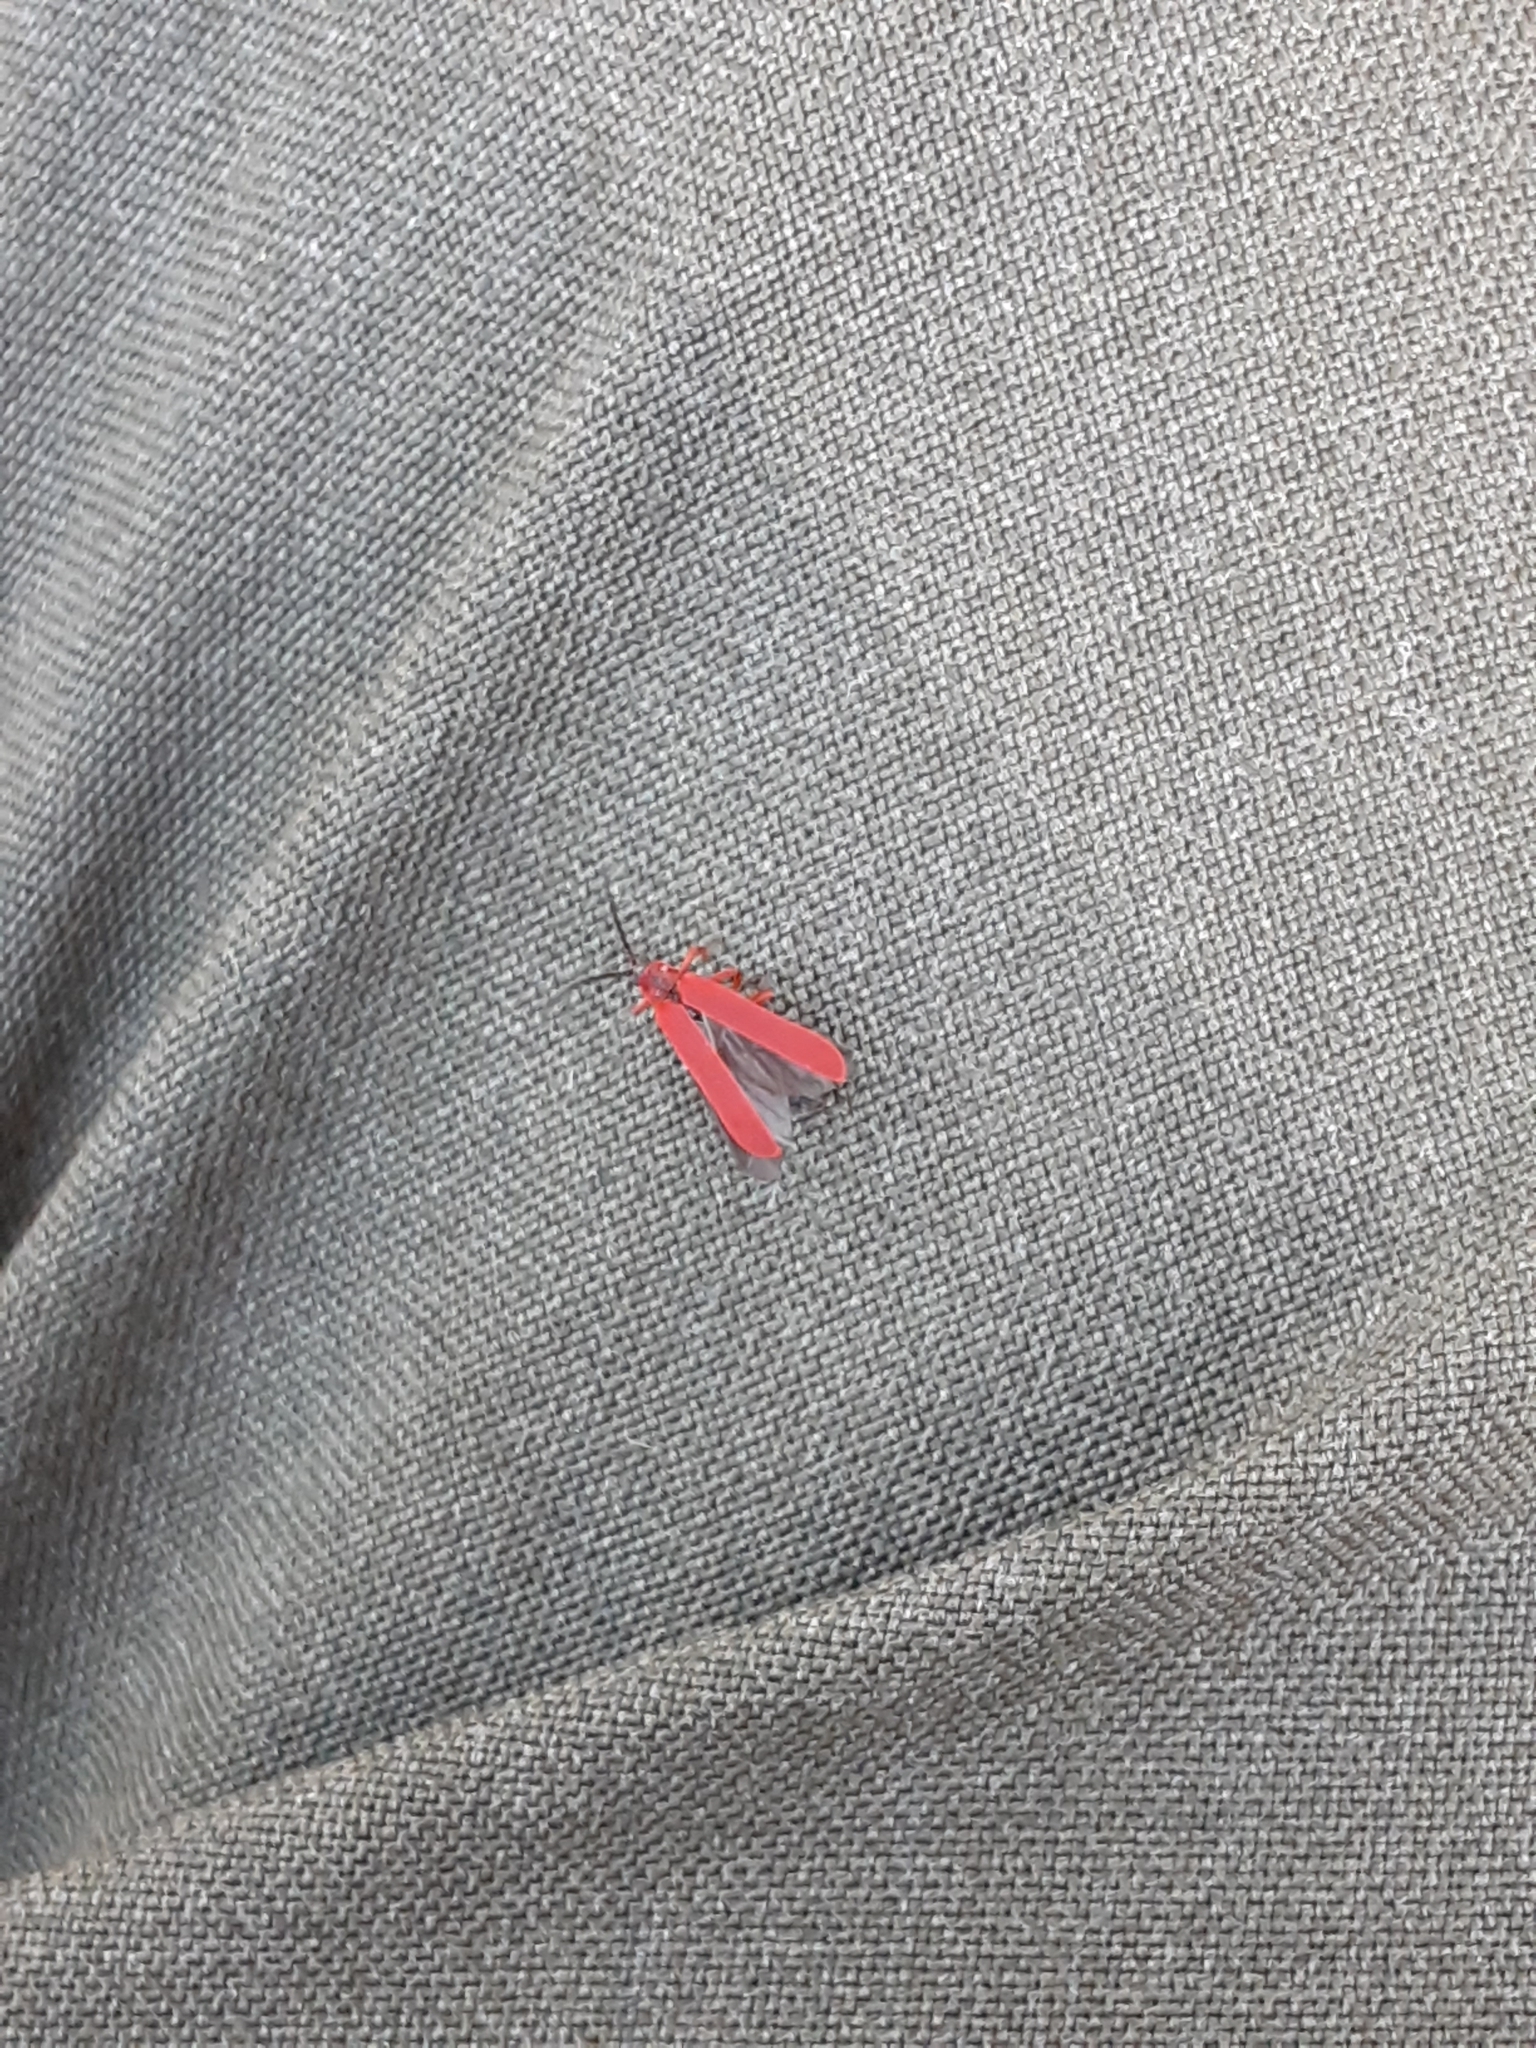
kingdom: Animalia
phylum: Arthropoda
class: Insecta
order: Coleoptera
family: Lycidae
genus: Dictyoptera
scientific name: Dictyoptera simplicipes
